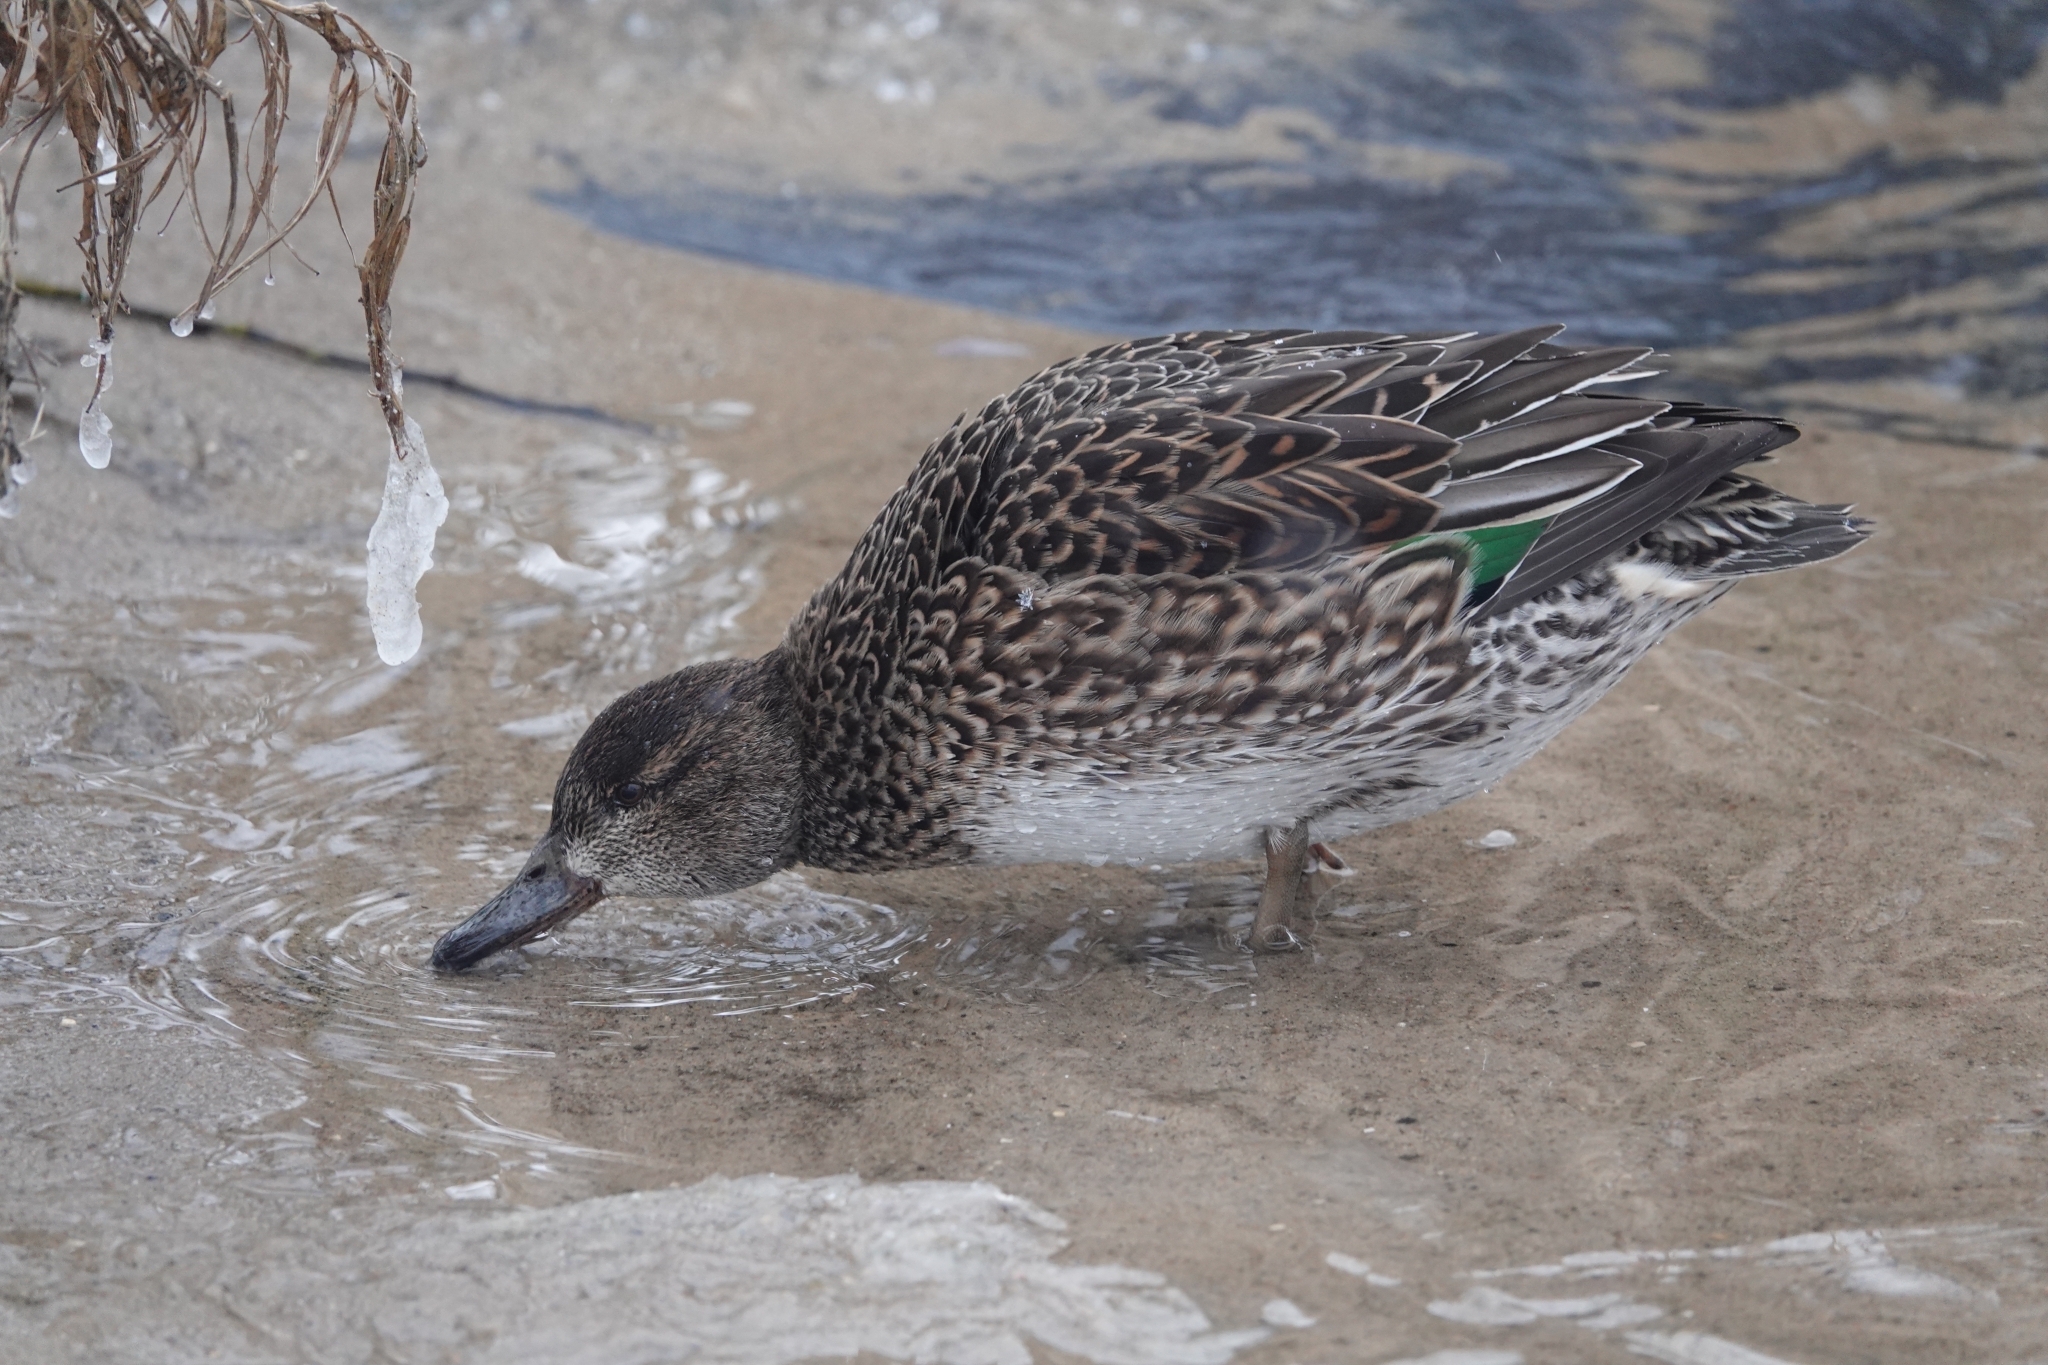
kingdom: Animalia
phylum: Chordata
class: Aves
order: Anseriformes
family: Anatidae
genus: Anas
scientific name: Anas crecca
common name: Eurasian teal
